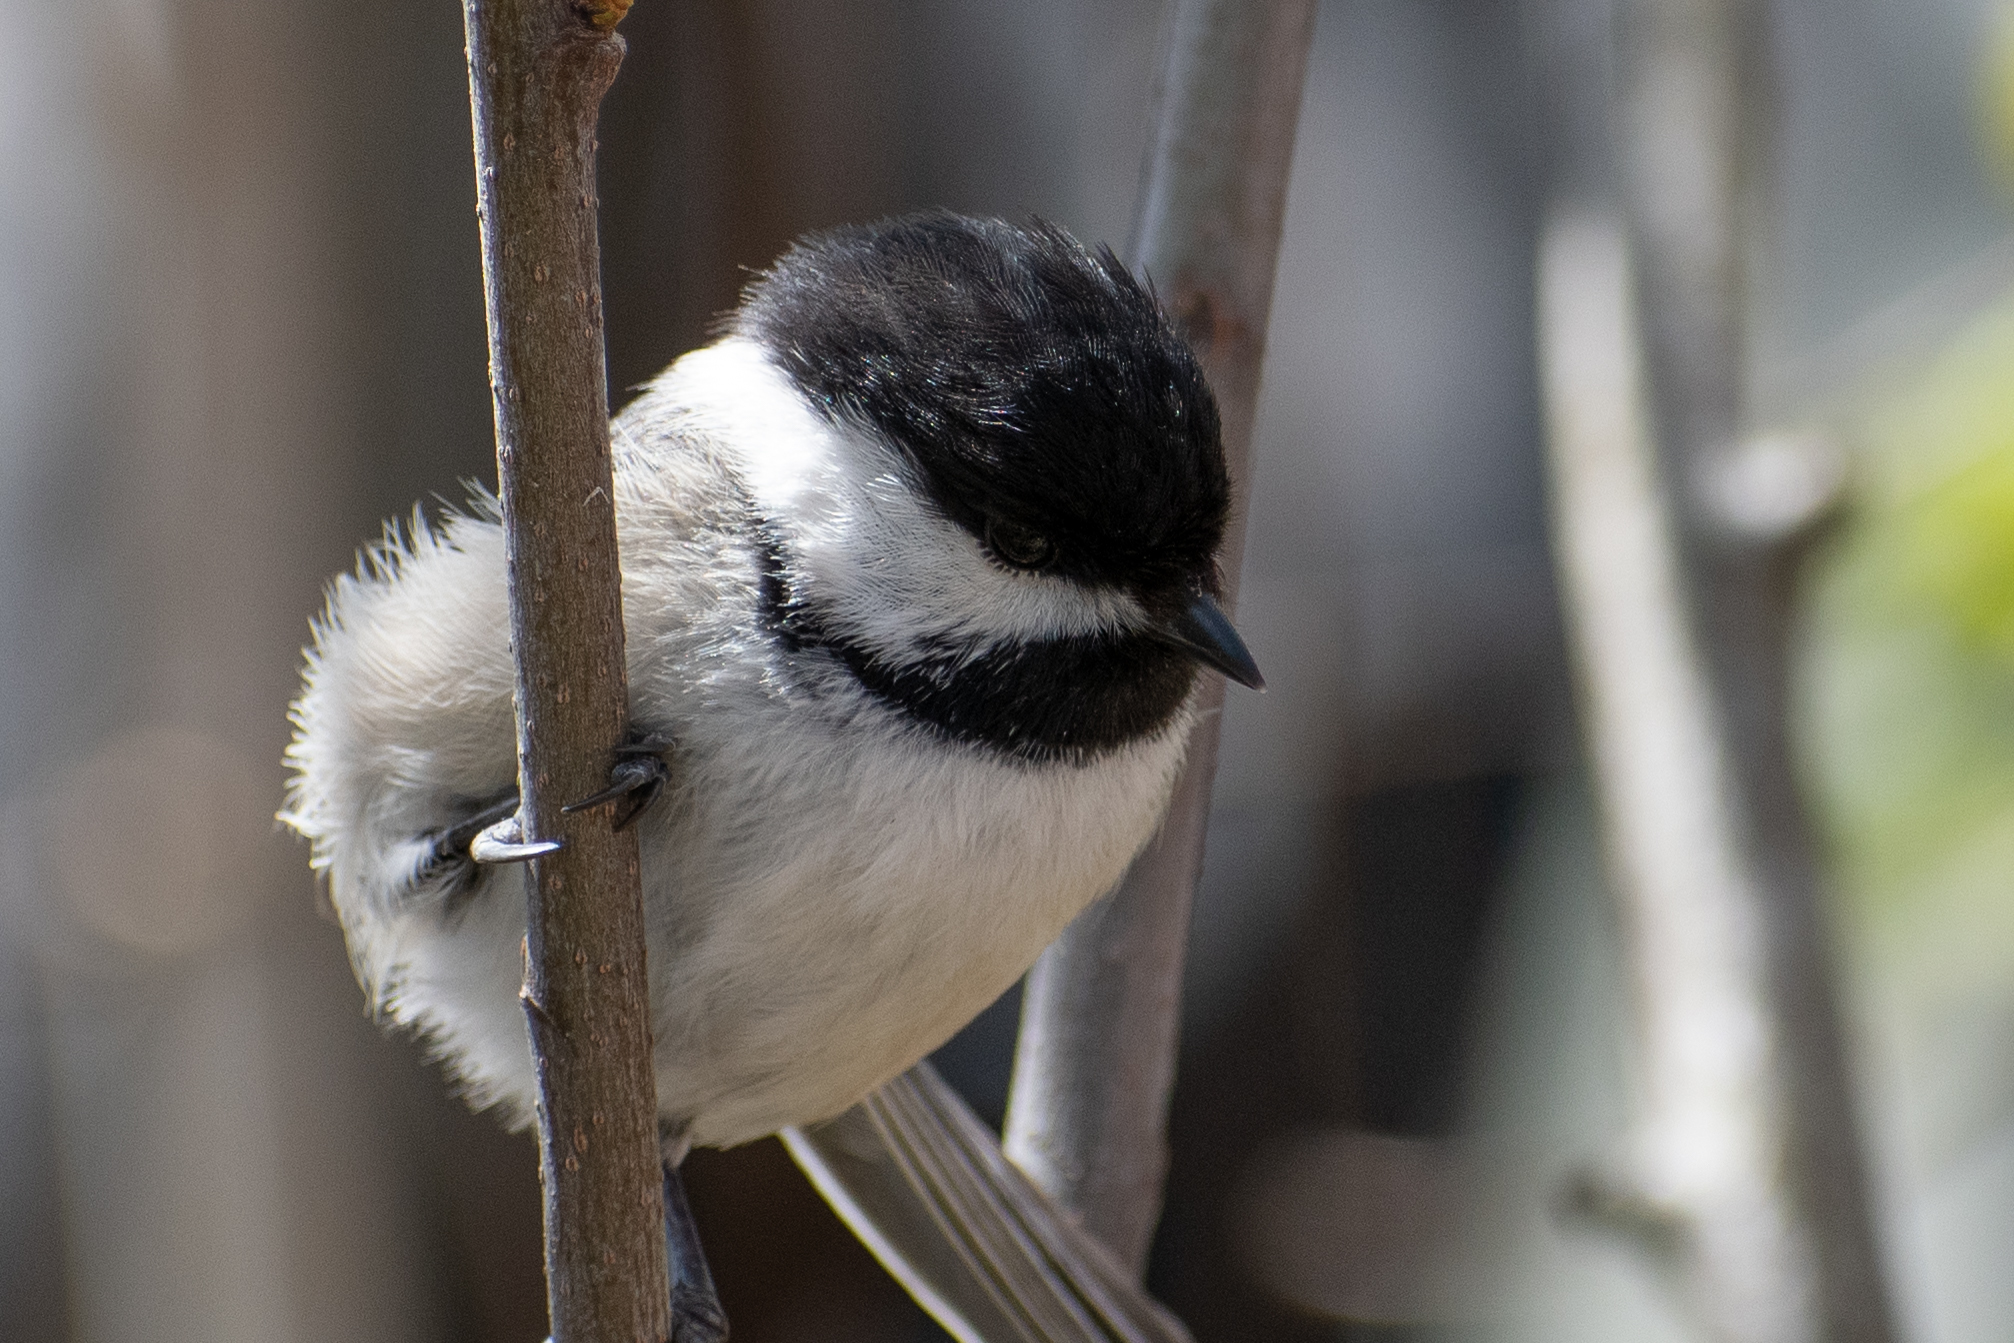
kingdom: Animalia
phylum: Chordata
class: Aves
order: Passeriformes
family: Paridae
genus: Poecile
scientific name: Poecile atricapillus
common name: Black-capped chickadee
